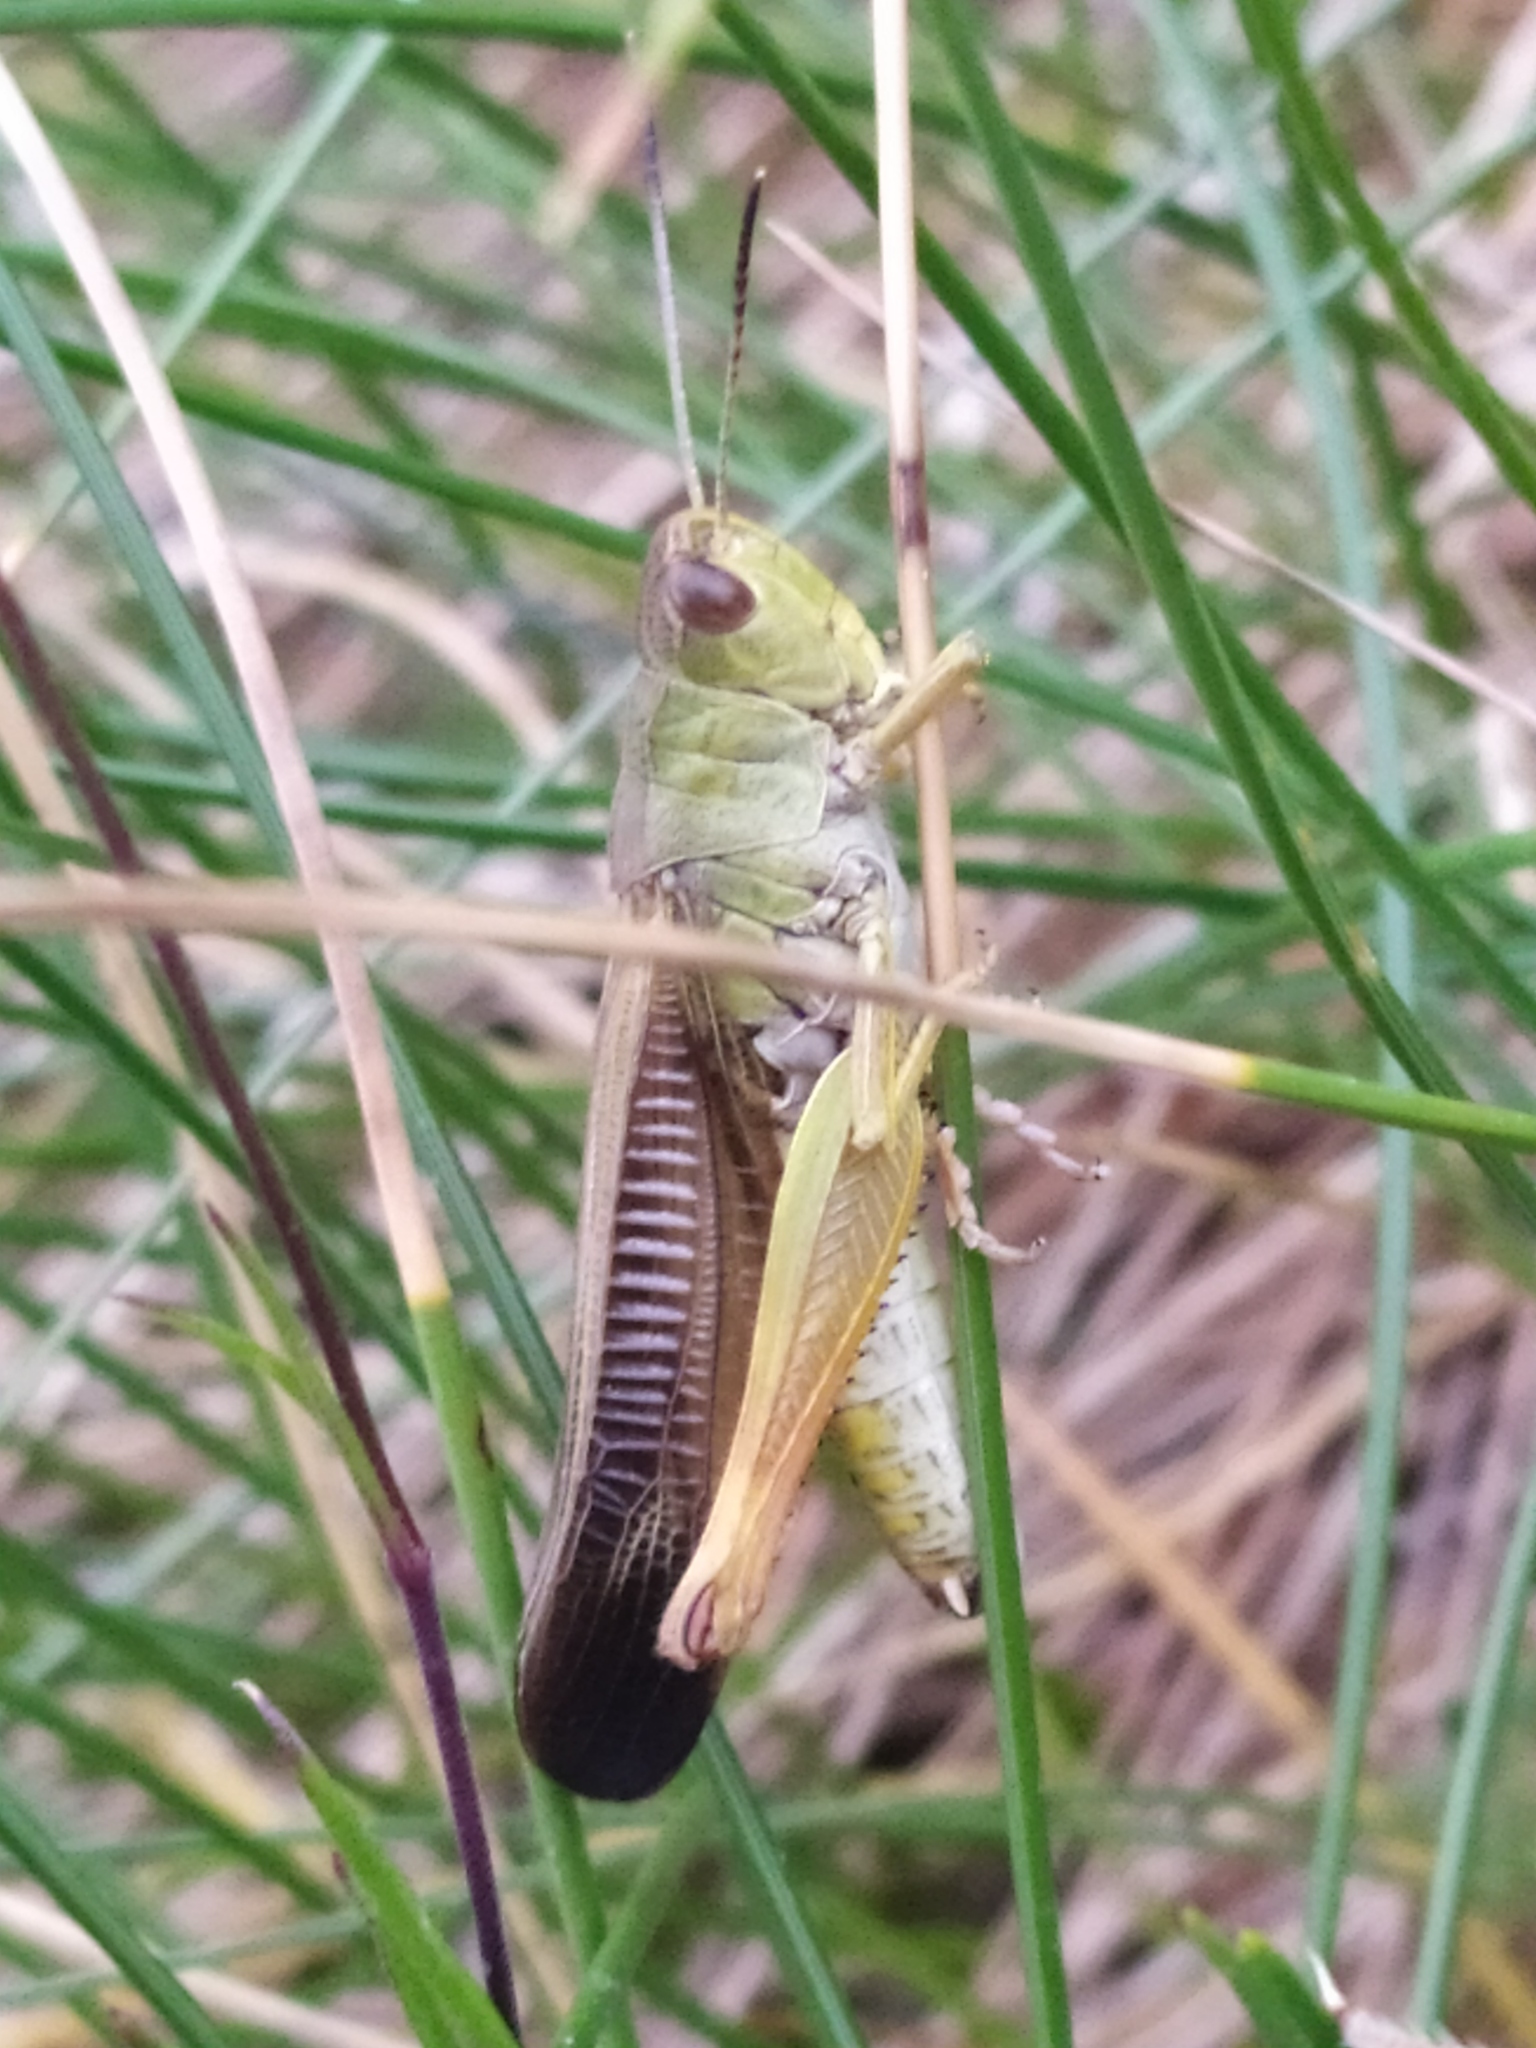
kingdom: Animalia
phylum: Arthropoda
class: Insecta
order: Orthoptera
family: Acrididae
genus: Stauroderus
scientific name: Stauroderus scalaris
